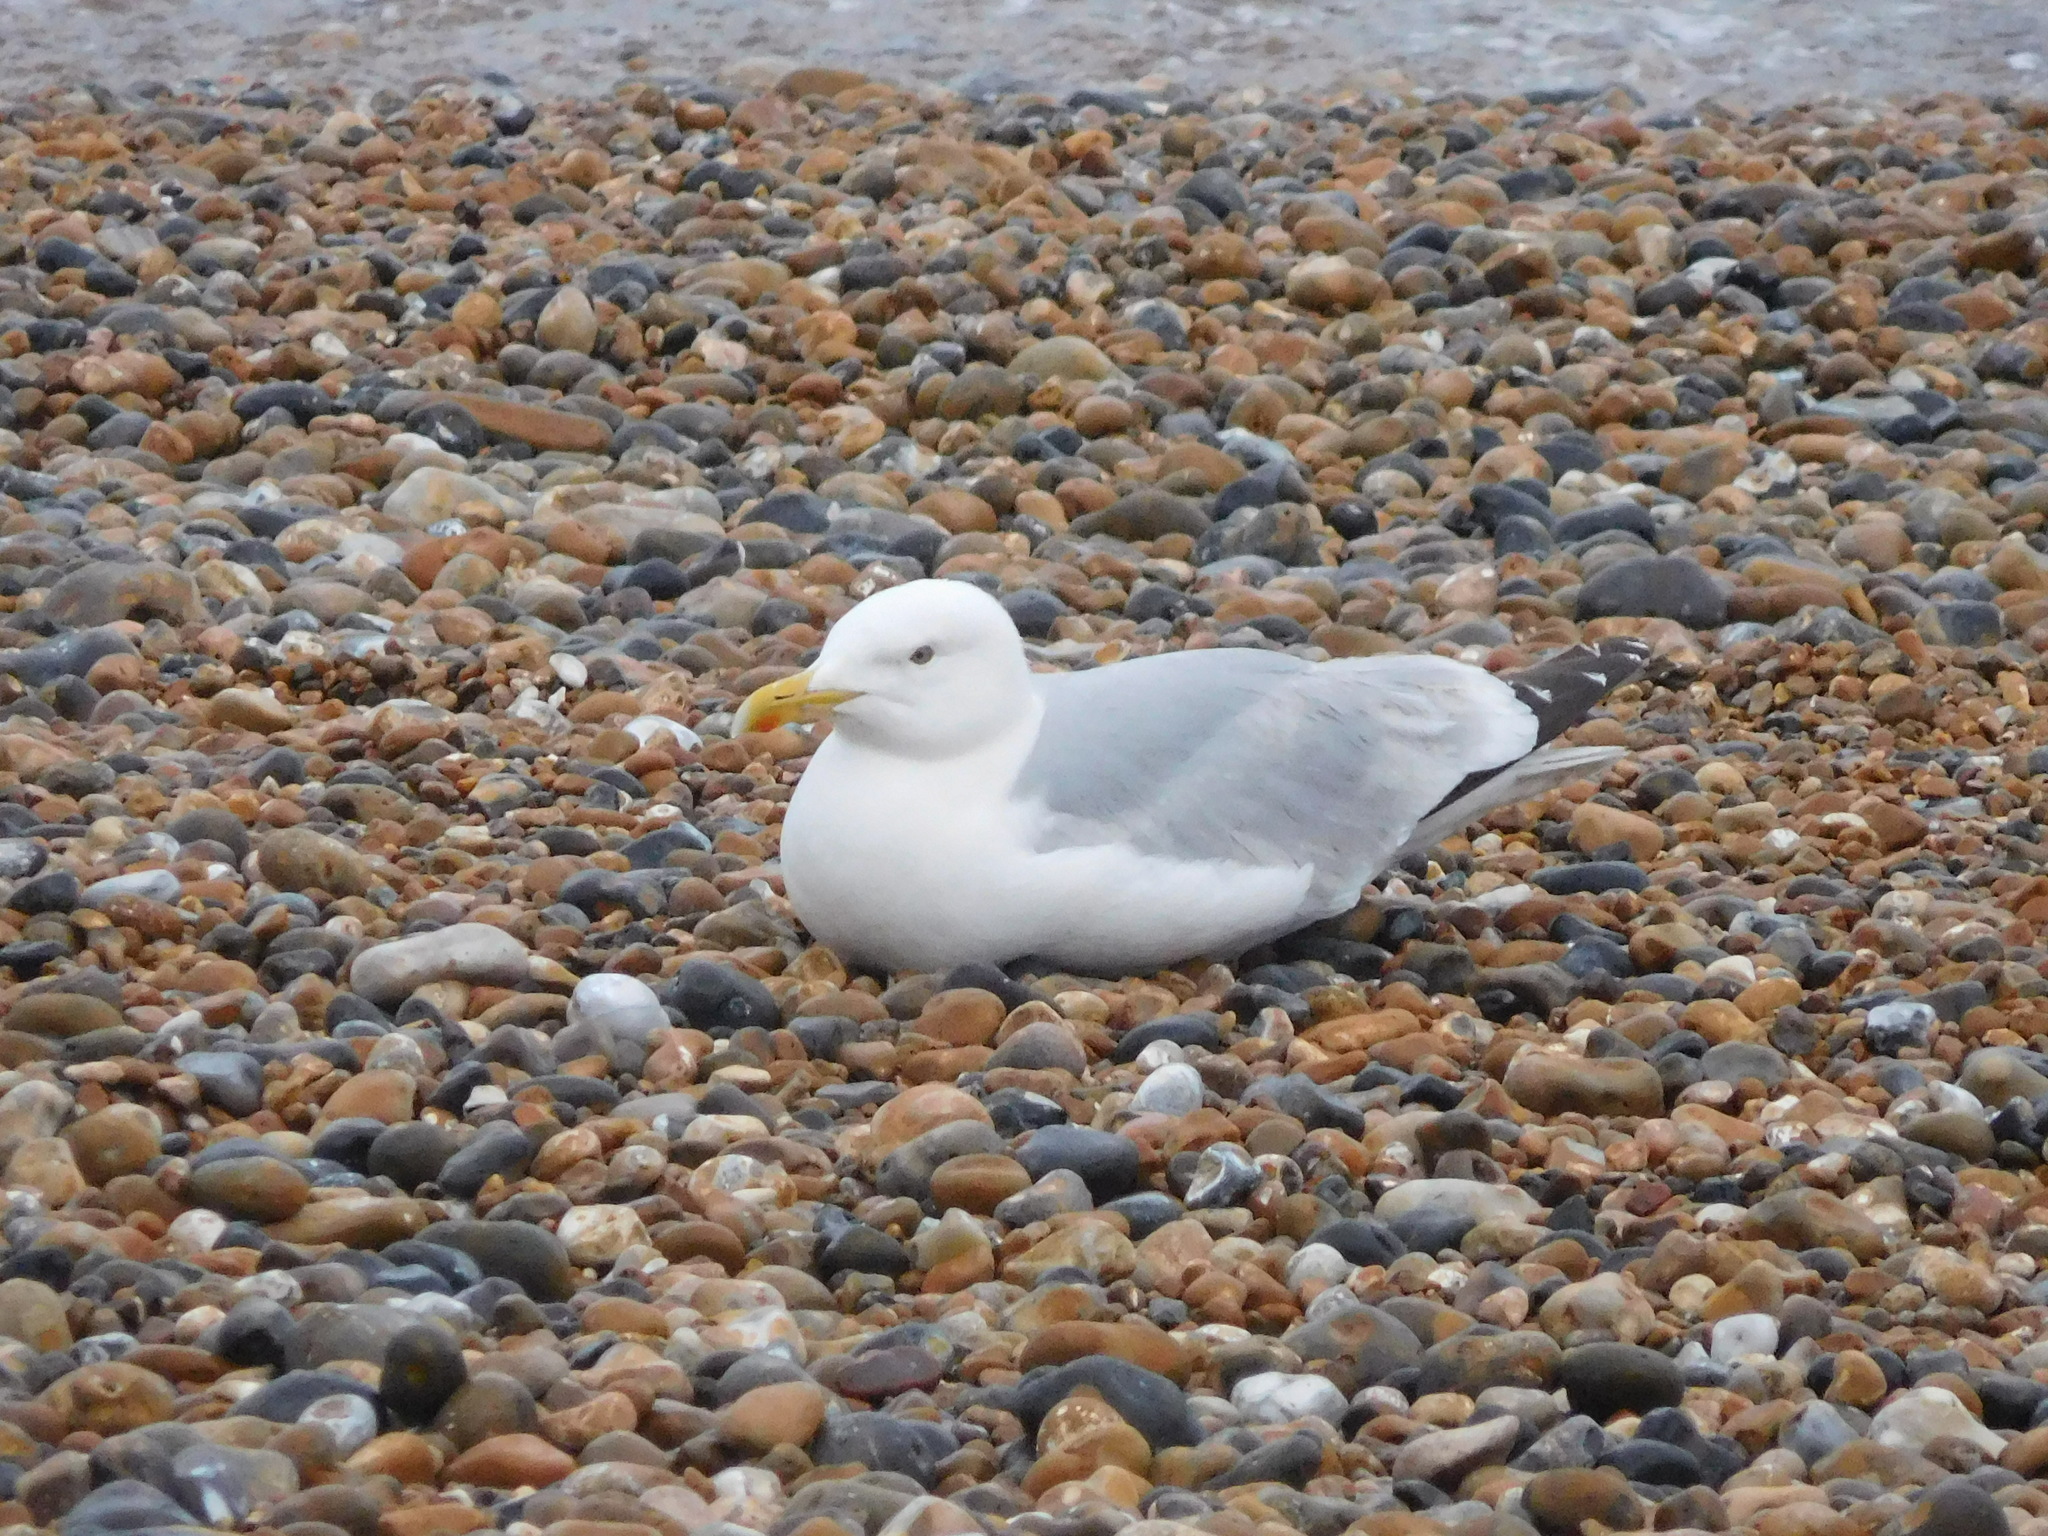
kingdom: Animalia
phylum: Chordata
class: Aves
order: Charadriiformes
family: Laridae
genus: Larus
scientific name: Larus argentatus
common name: Herring gull
